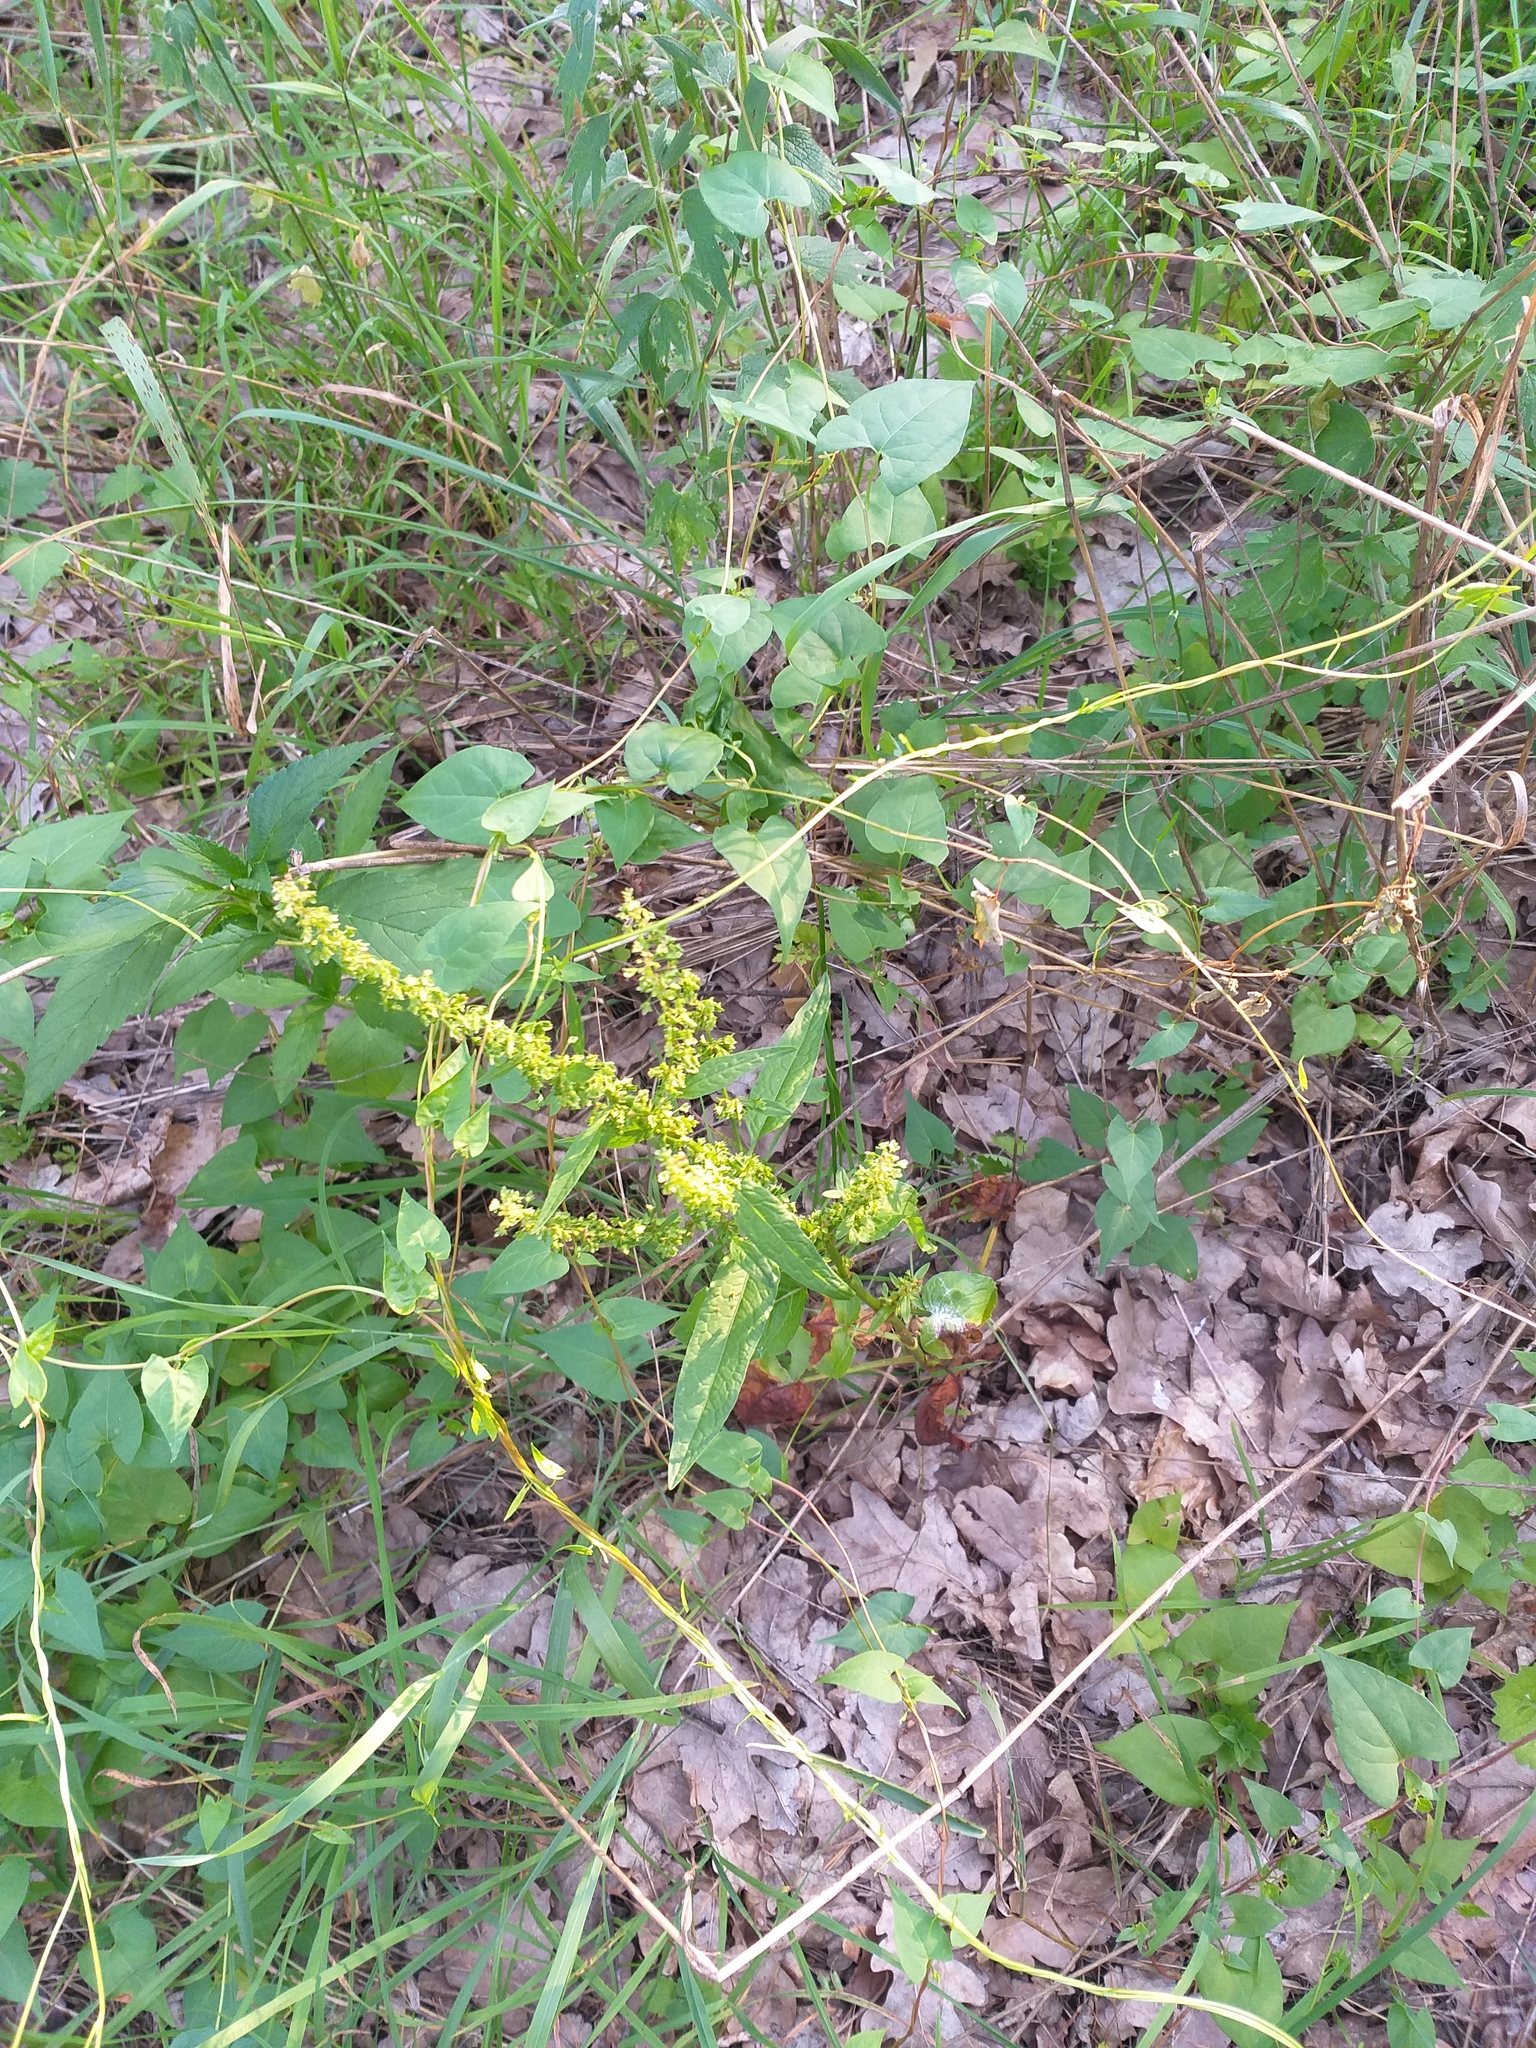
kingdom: Plantae
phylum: Tracheophyta
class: Magnoliopsida
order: Caryophyllales
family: Polygonaceae
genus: Rumex
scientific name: Rumex obtusifolius
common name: Bitter dock
